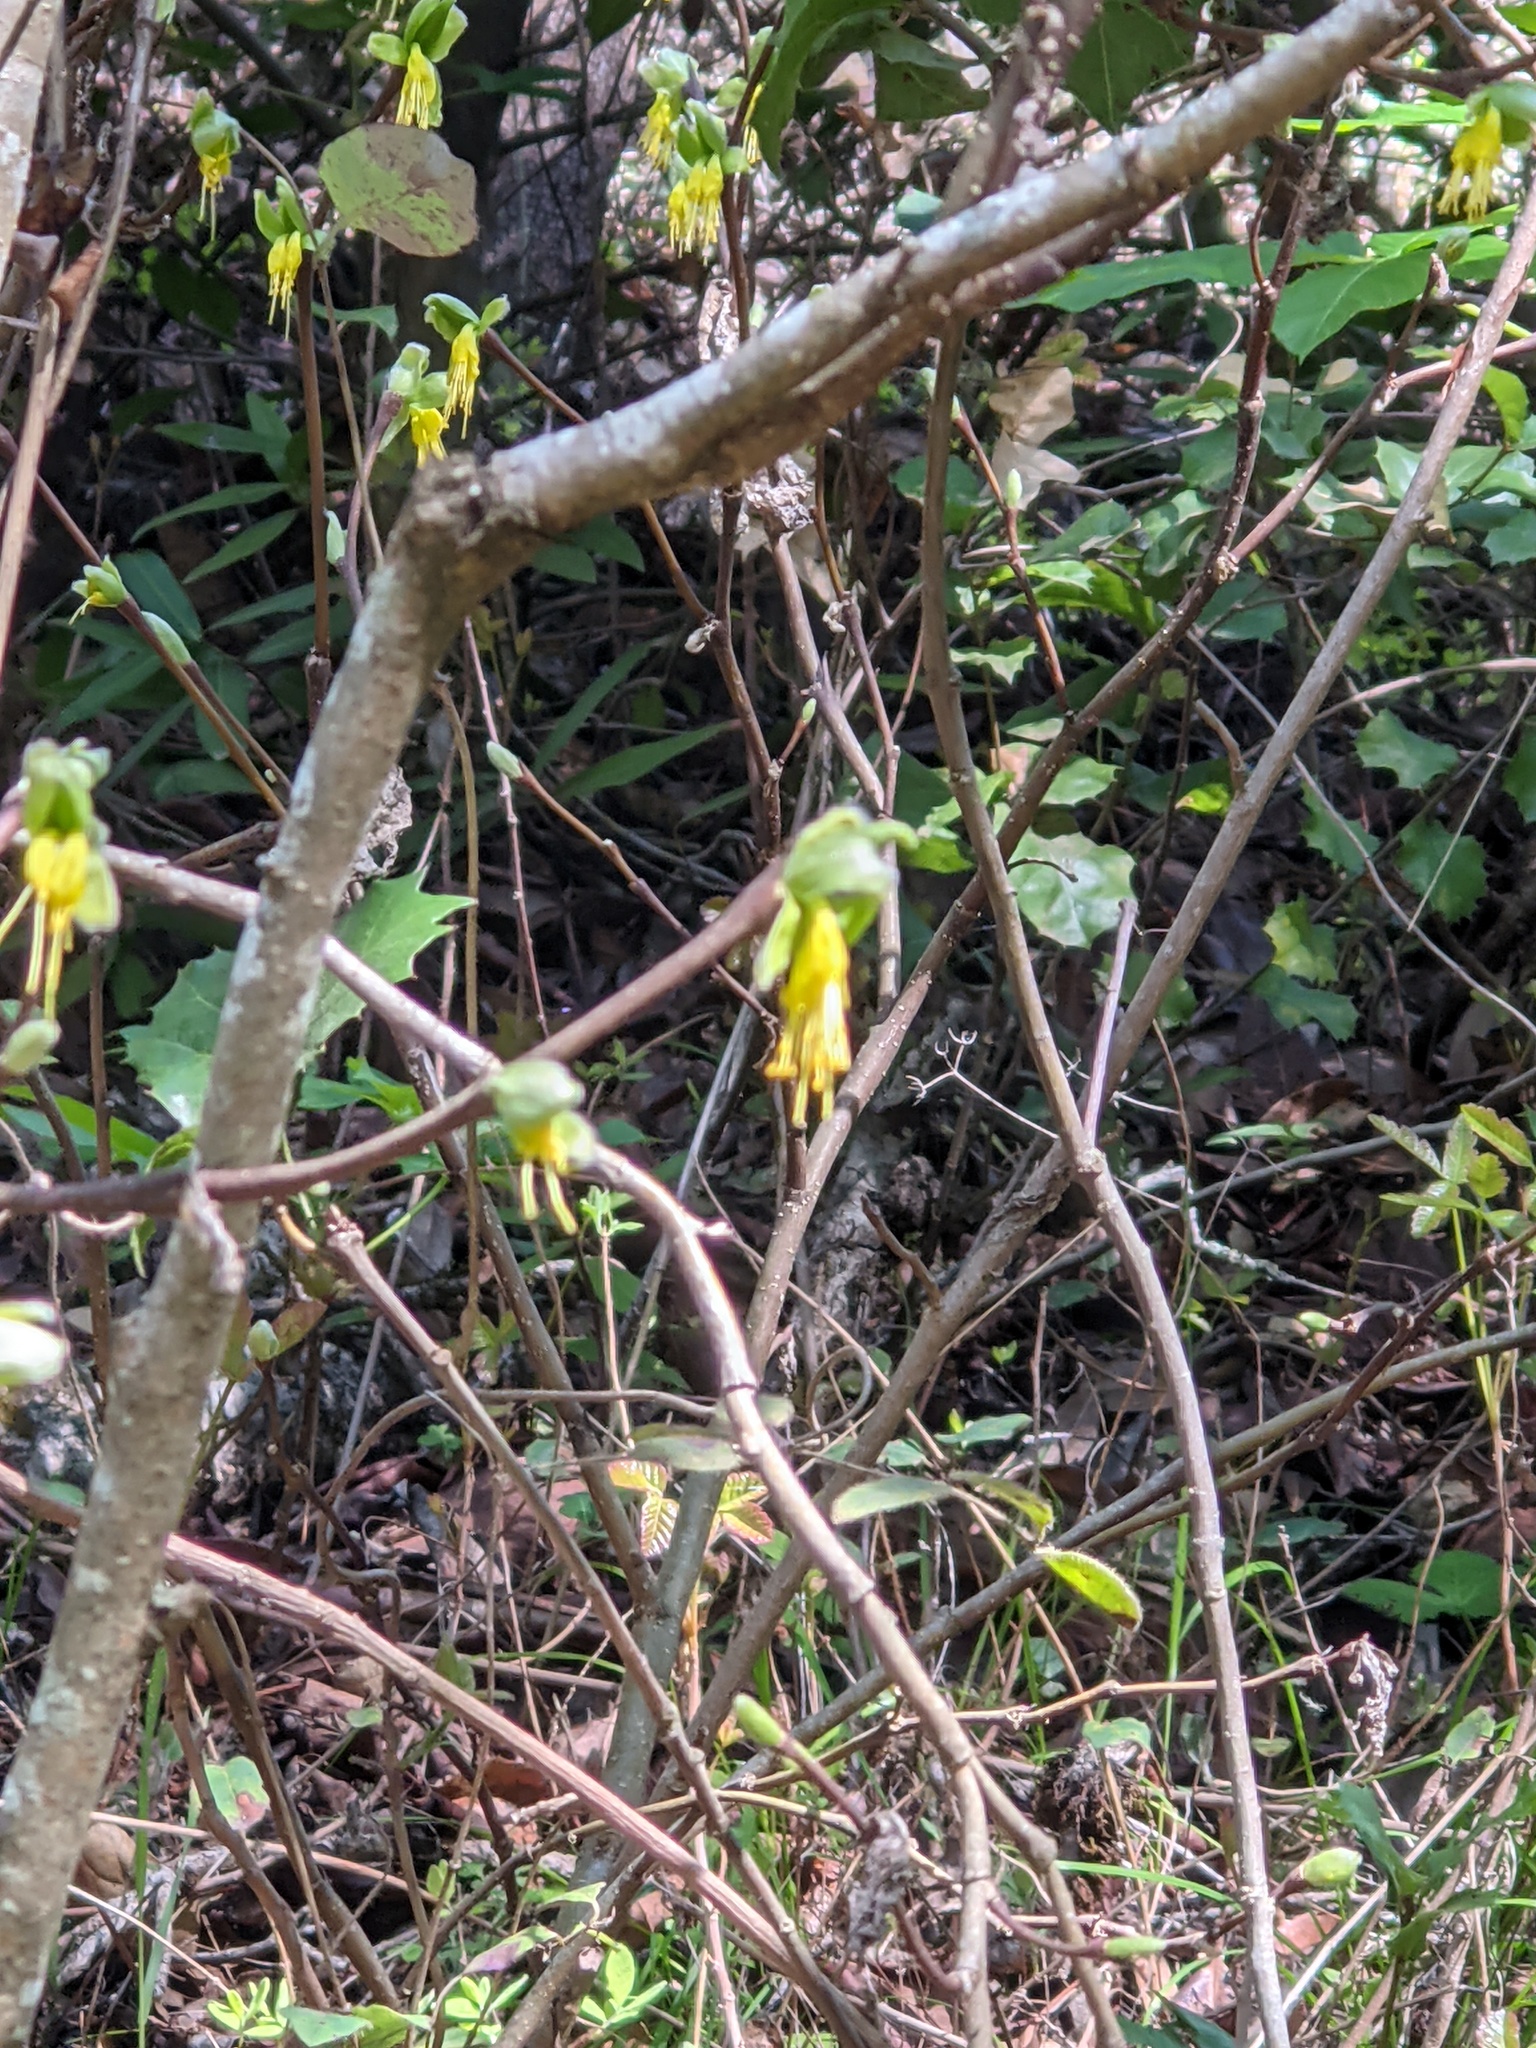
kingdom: Plantae
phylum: Tracheophyta
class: Magnoliopsida
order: Malvales
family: Thymelaeaceae
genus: Dirca
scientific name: Dirca occidentalis
